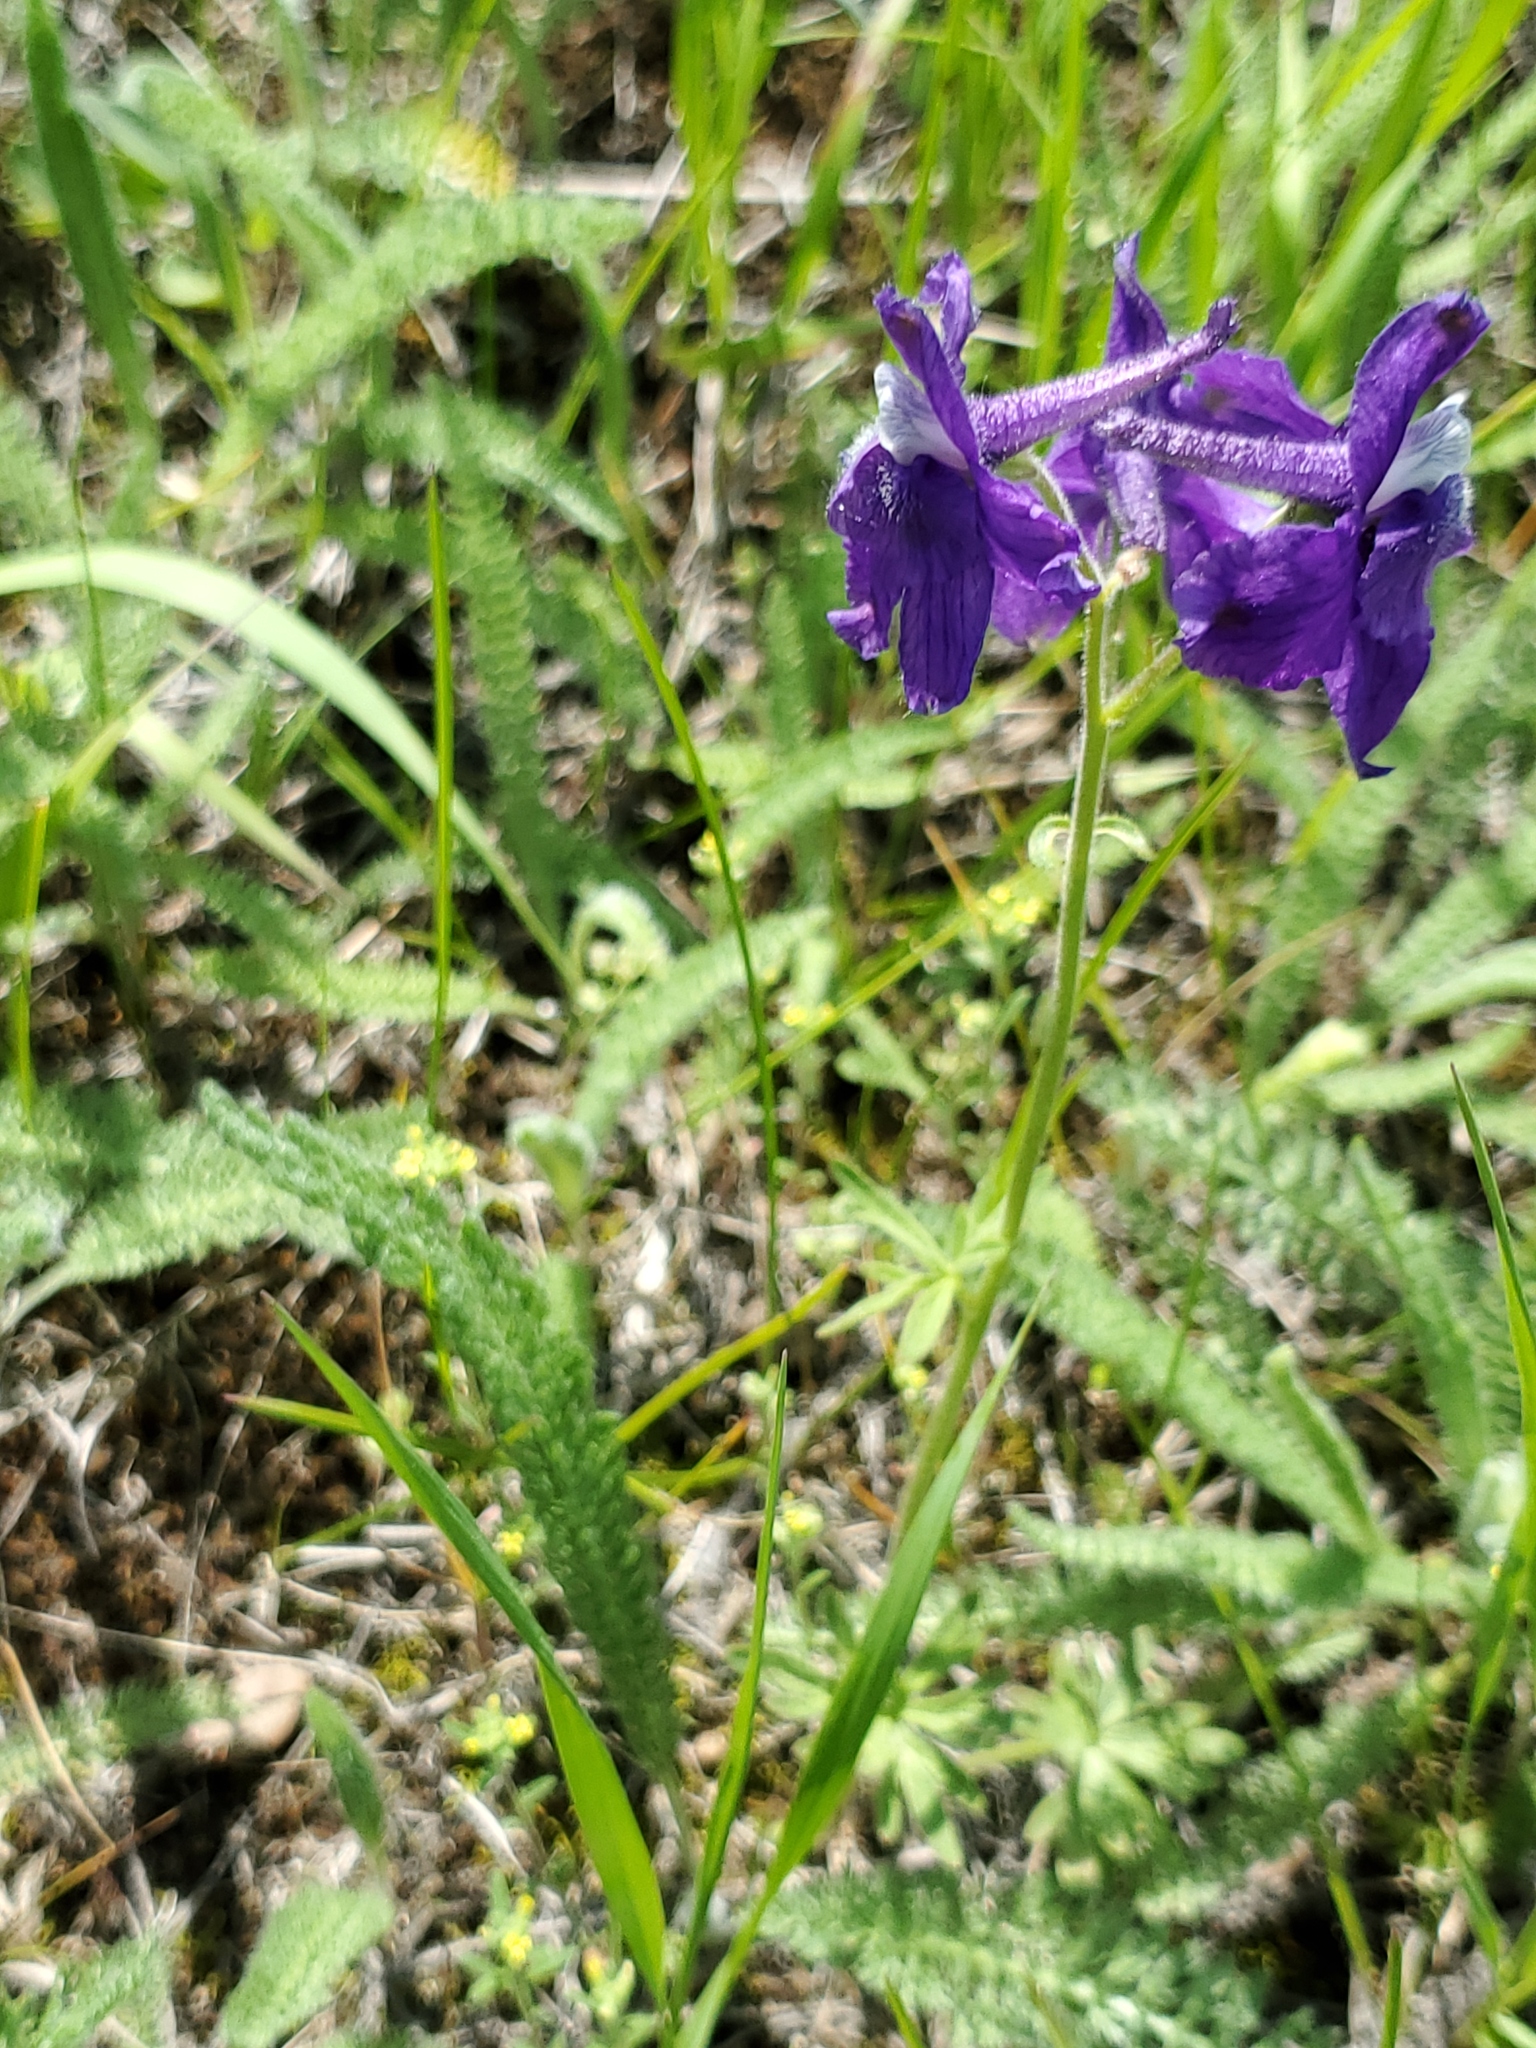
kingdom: Plantae
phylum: Tracheophyta
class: Magnoliopsida
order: Ranunculales
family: Ranunculaceae
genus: Delphinium
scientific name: Delphinium bicolor
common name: Low larkspur
